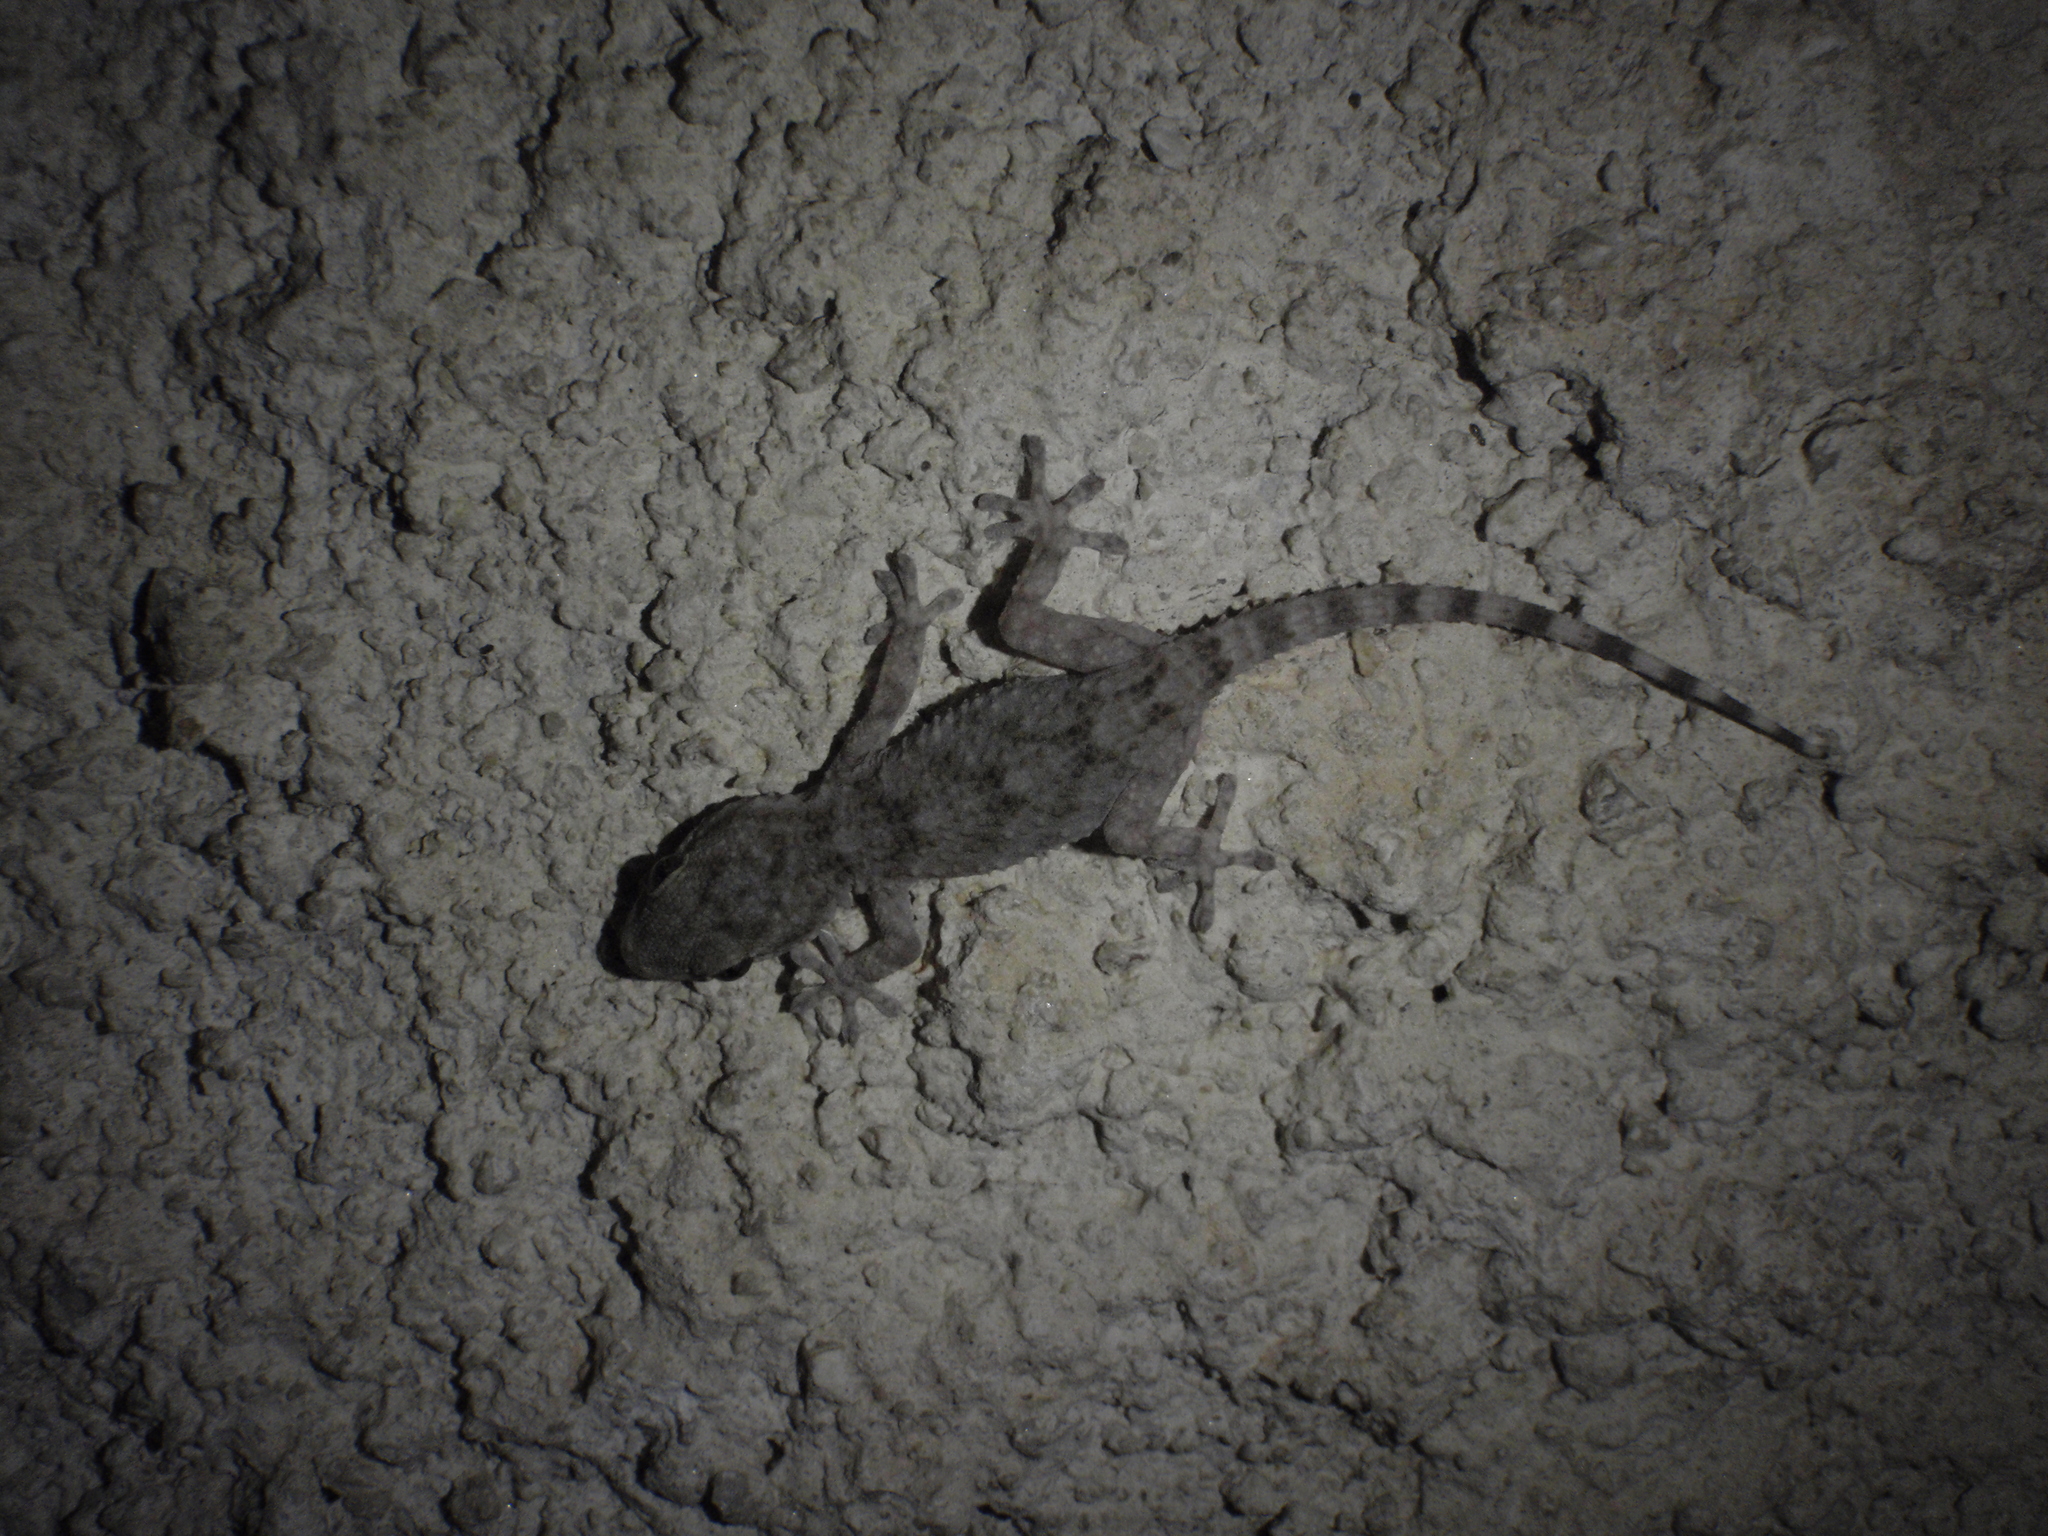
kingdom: Animalia
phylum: Chordata
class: Squamata
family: Phyllodactylidae
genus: Tarentola
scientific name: Tarentola mauritanica
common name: Moorish gecko
